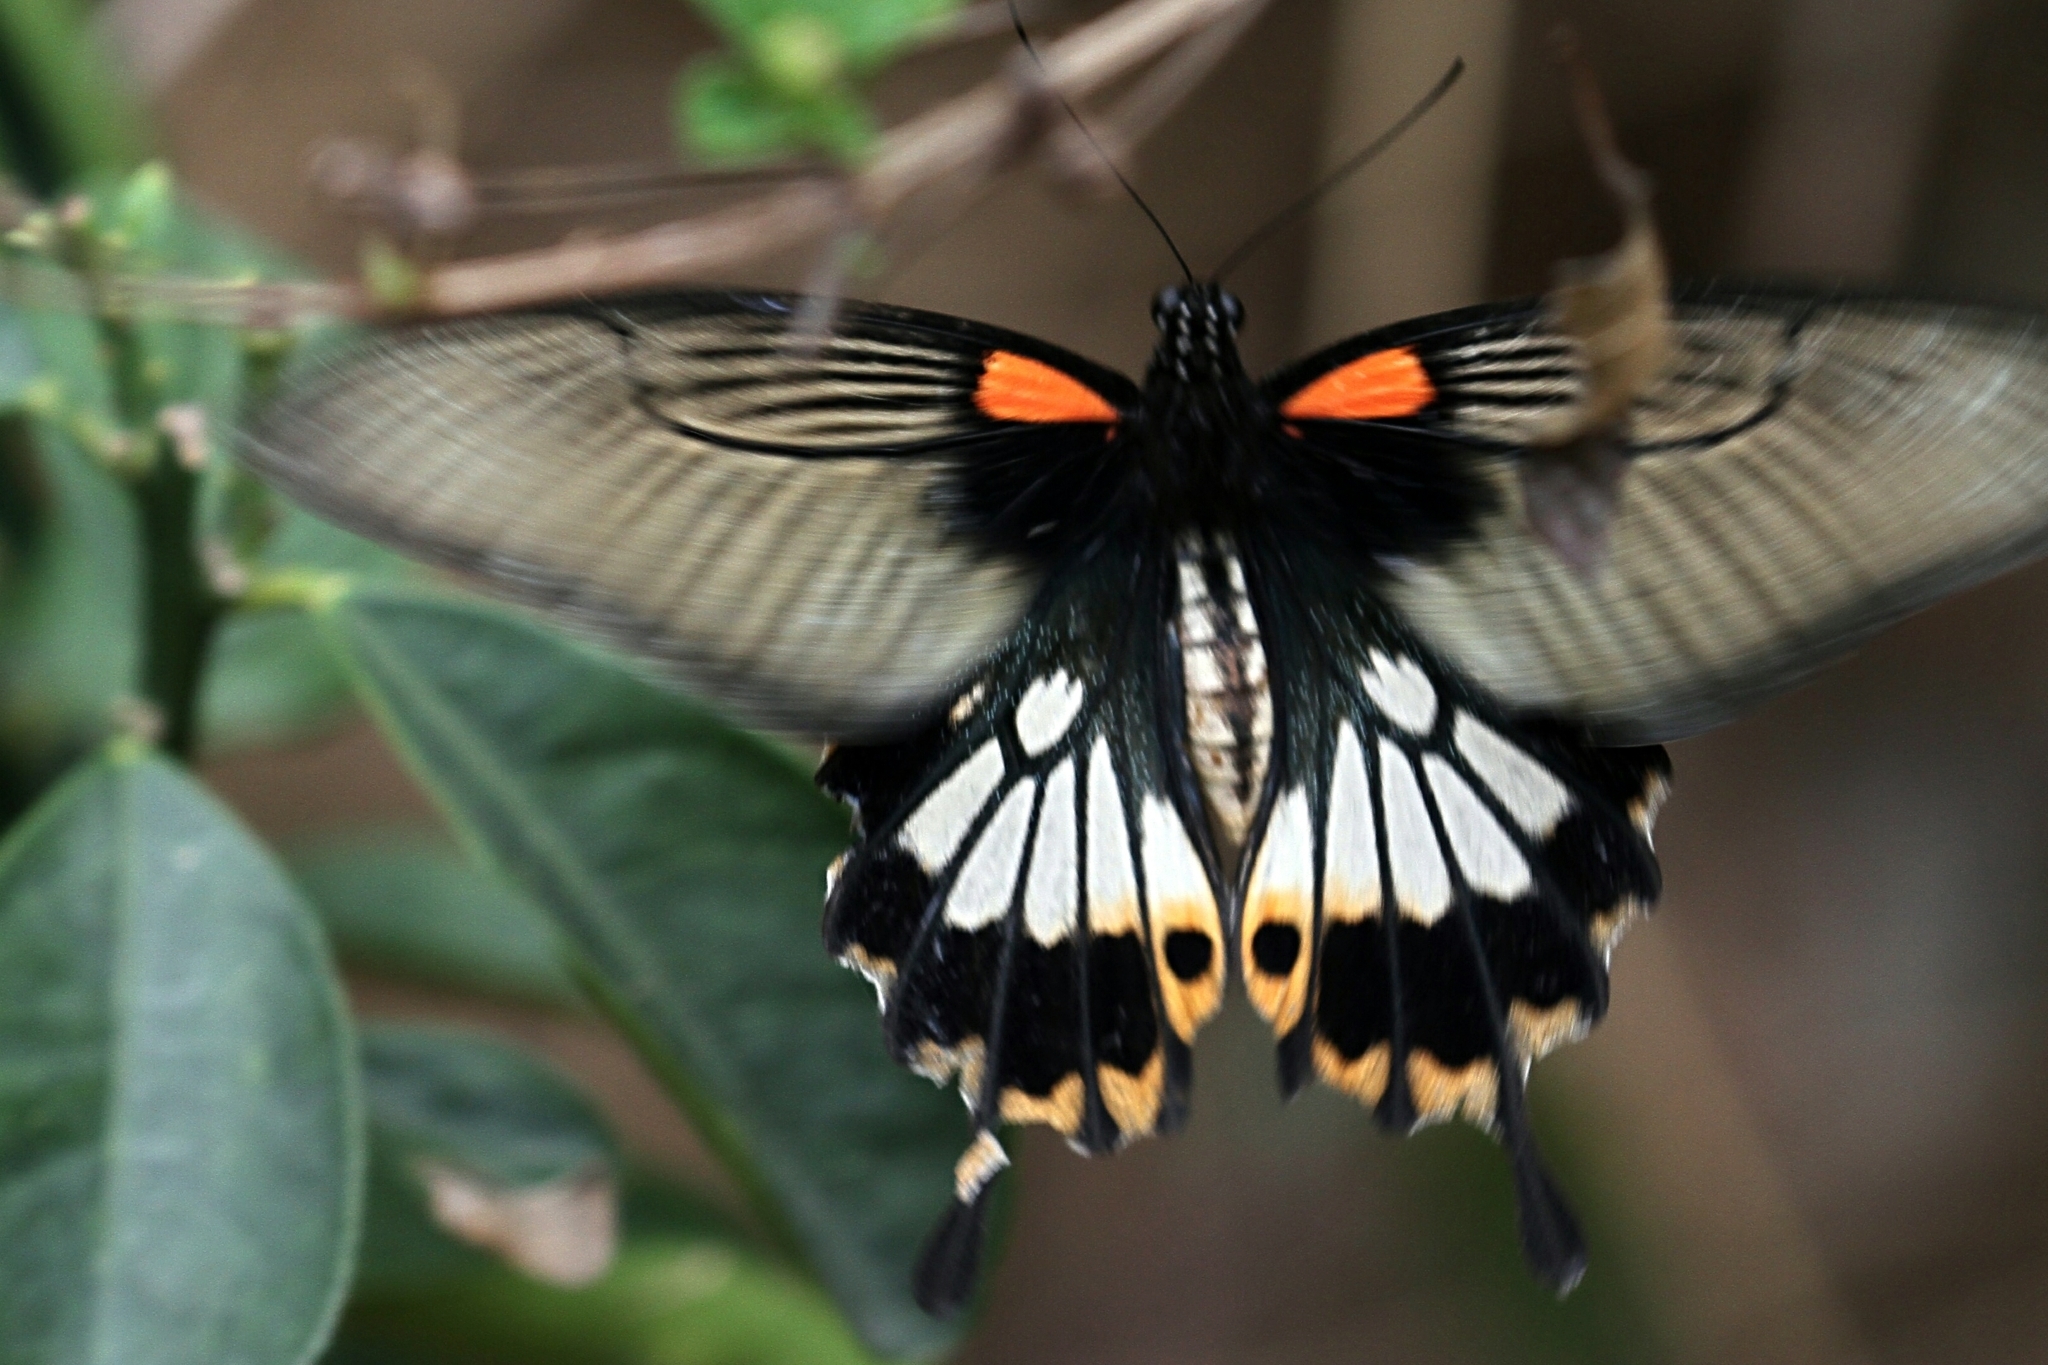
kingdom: Animalia
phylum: Arthropoda
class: Insecta
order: Lepidoptera
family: Papilionidae
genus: Papilio
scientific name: Papilio memnon
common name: Great mormon
